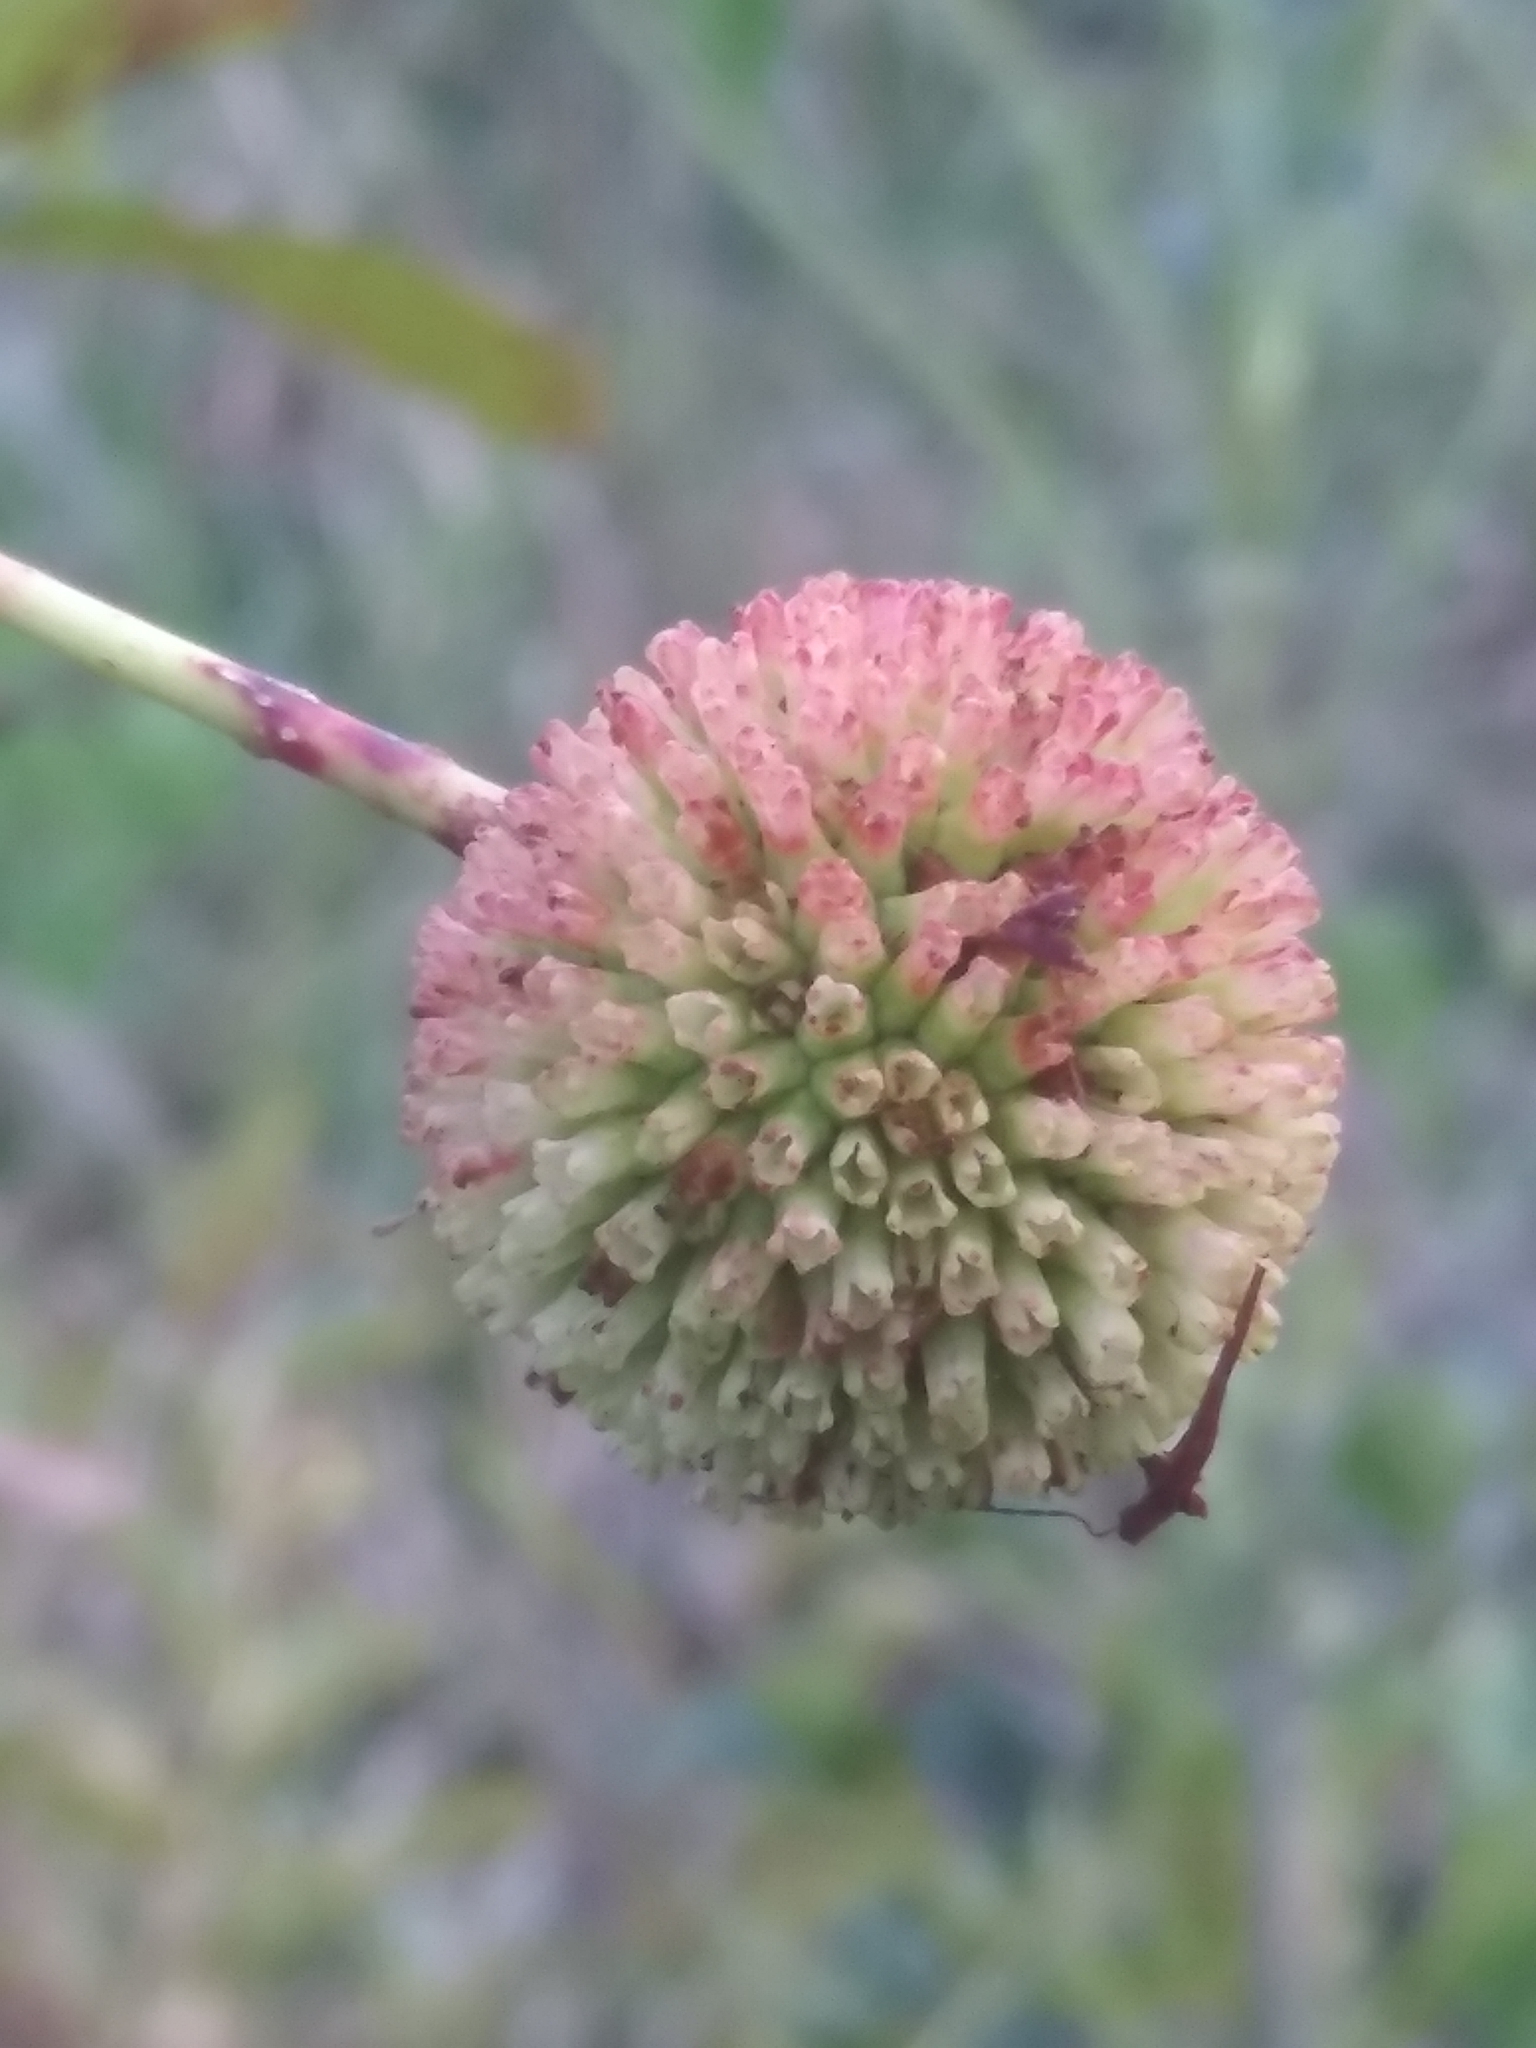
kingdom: Plantae
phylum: Tracheophyta
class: Magnoliopsida
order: Gentianales
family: Rubiaceae
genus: Cephalanthus
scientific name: Cephalanthus occidentalis
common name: Button-willow
